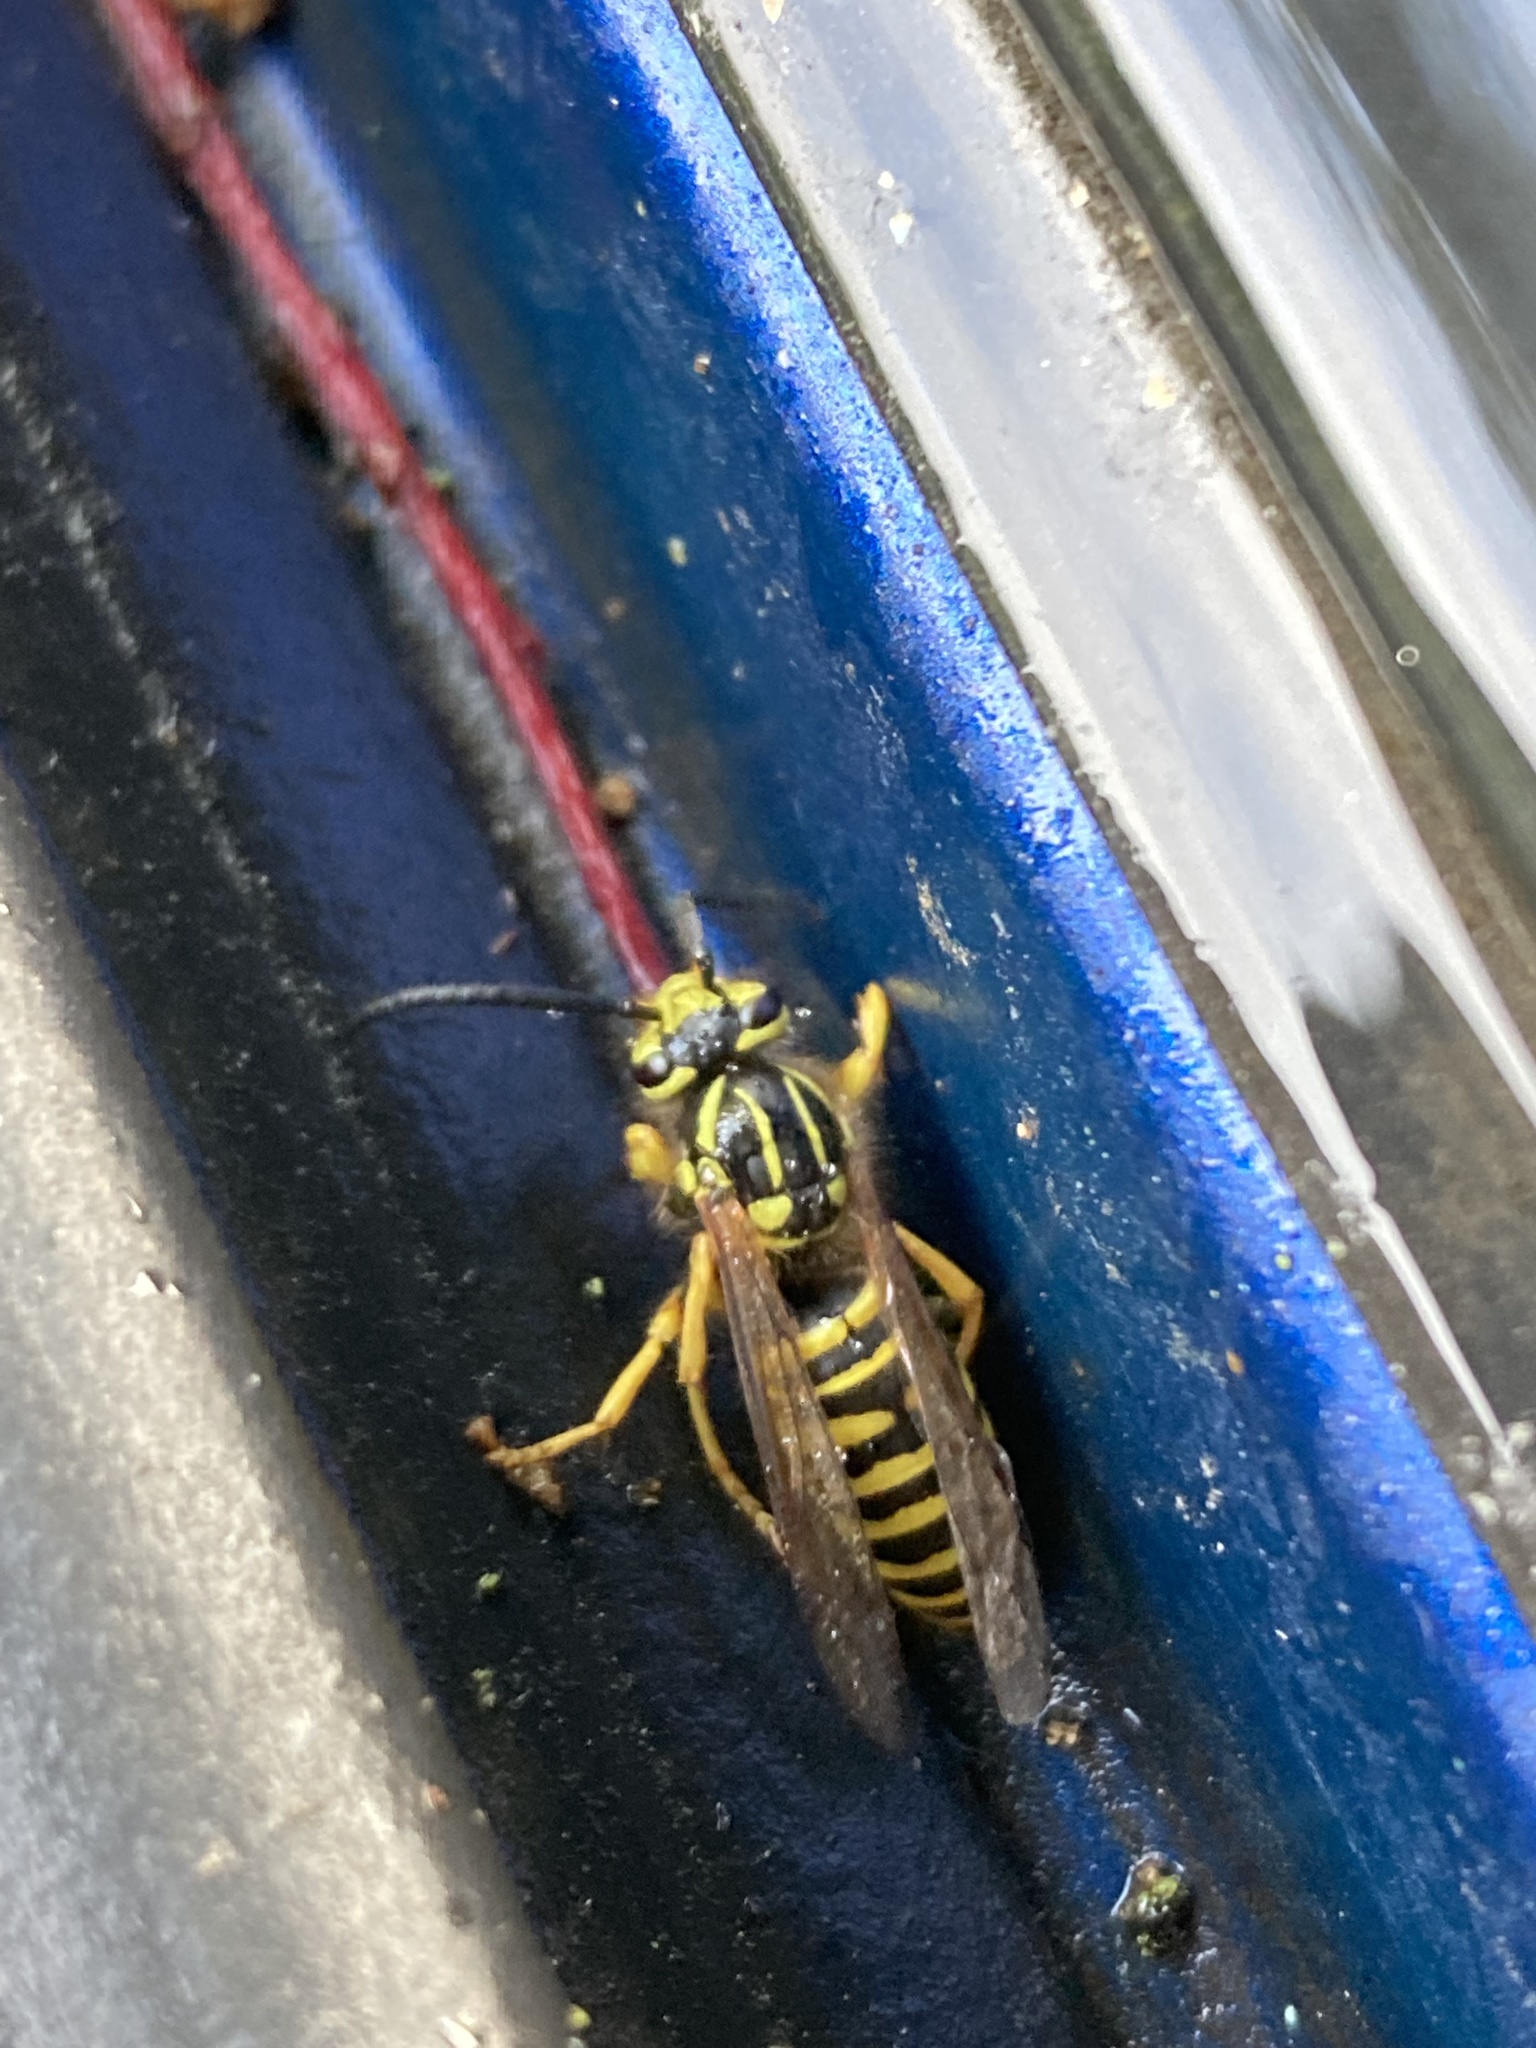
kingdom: Animalia
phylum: Arthropoda
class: Insecta
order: Hymenoptera
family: Vespidae
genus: Vespula
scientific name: Vespula squamosa
